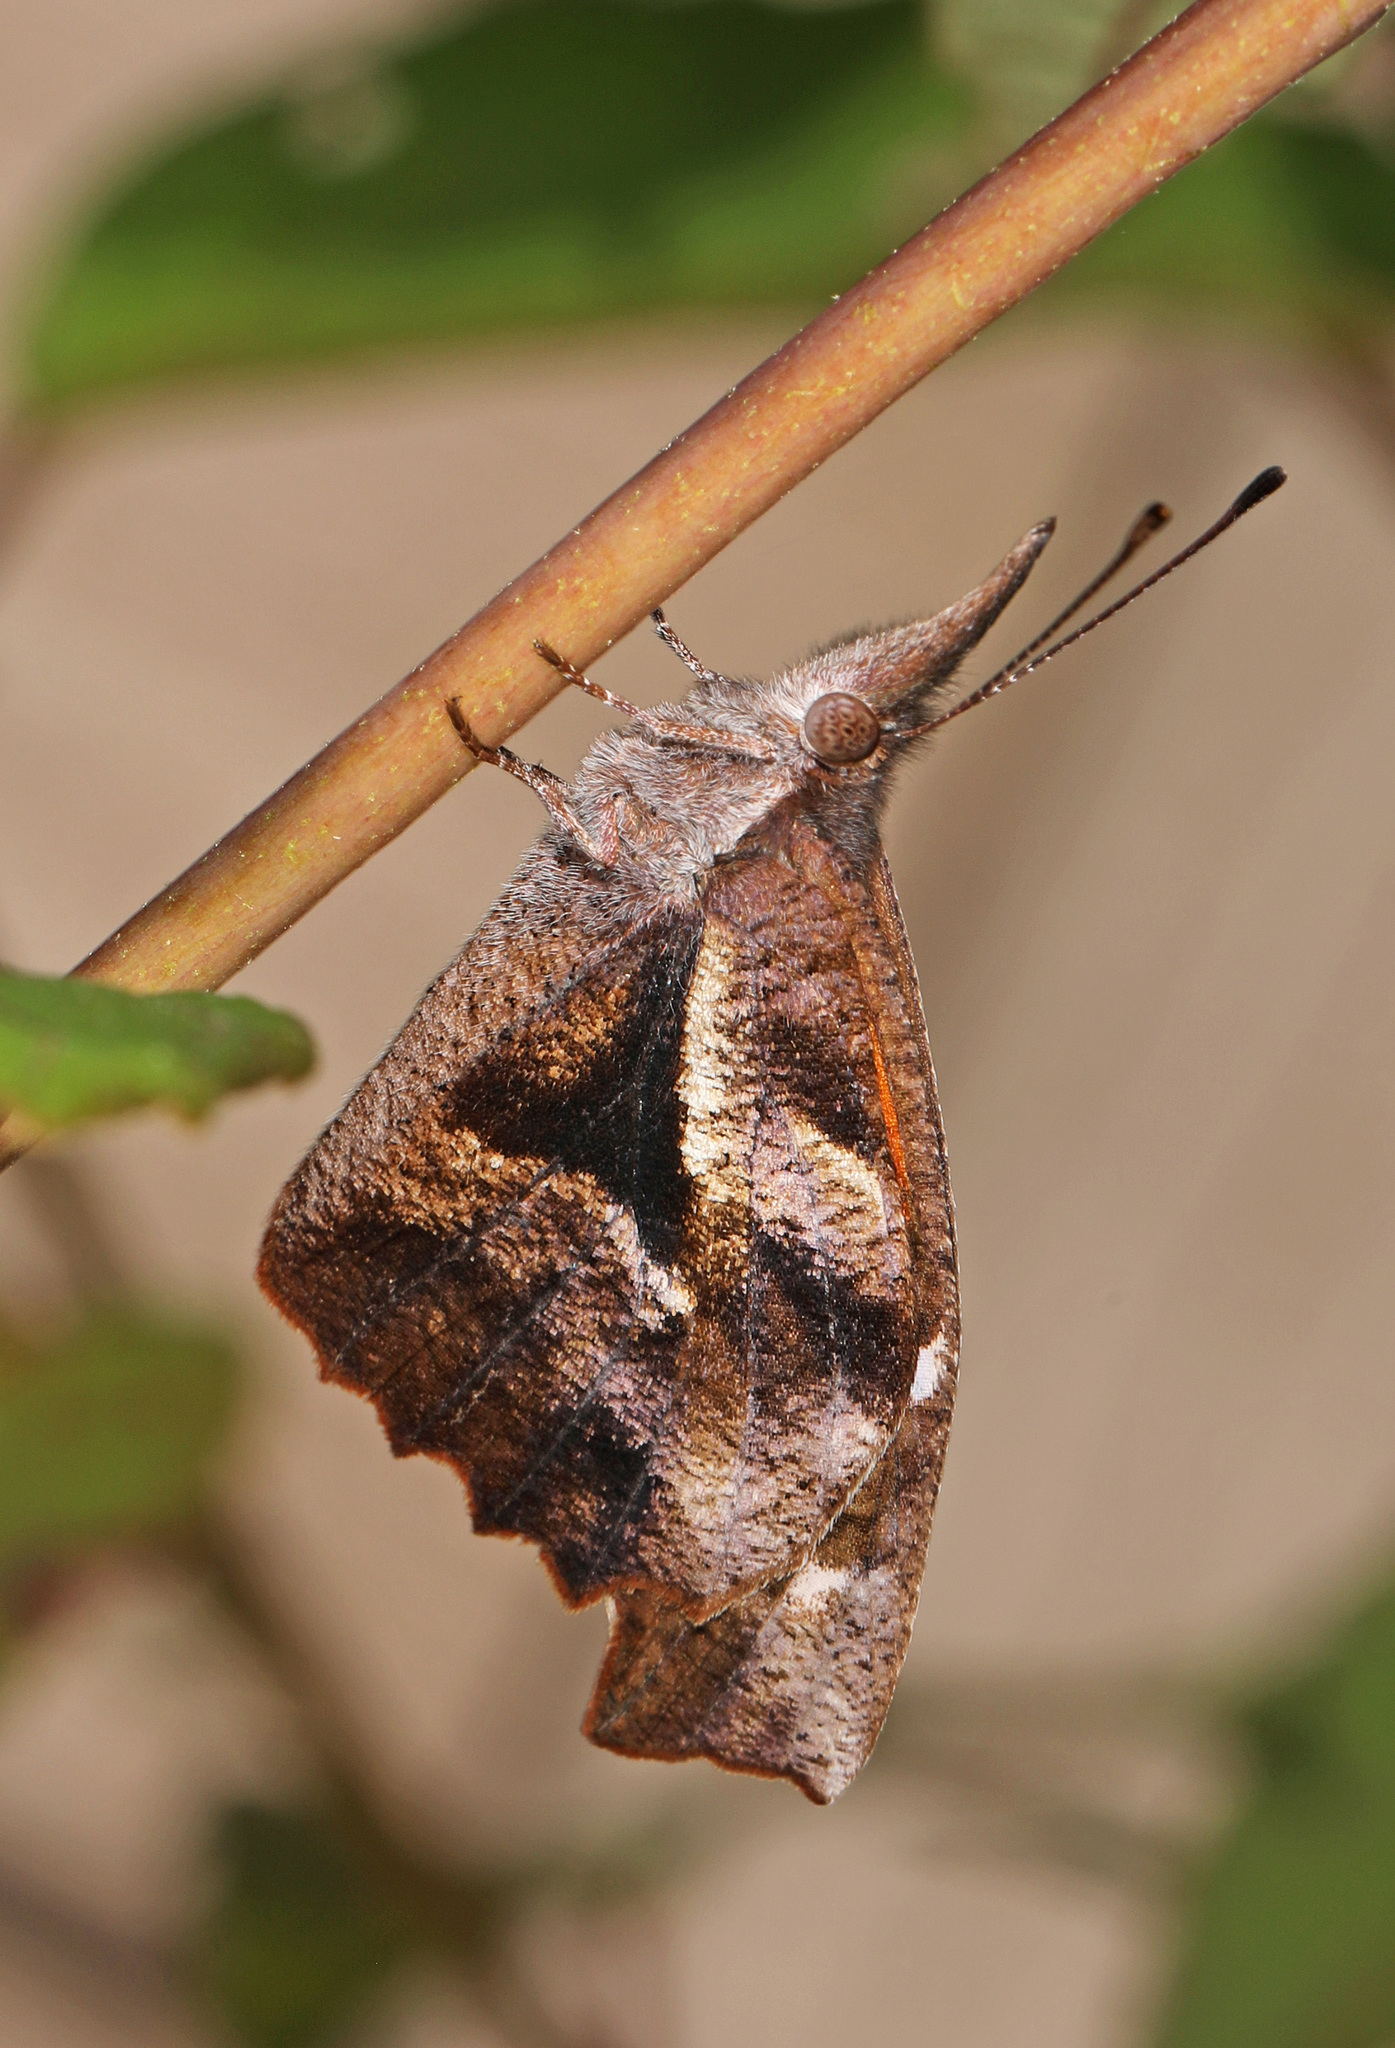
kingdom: Animalia
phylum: Arthropoda
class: Insecta
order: Lepidoptera
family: Nymphalidae
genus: Libytheana
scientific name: Libytheana carinenta
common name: American snout
